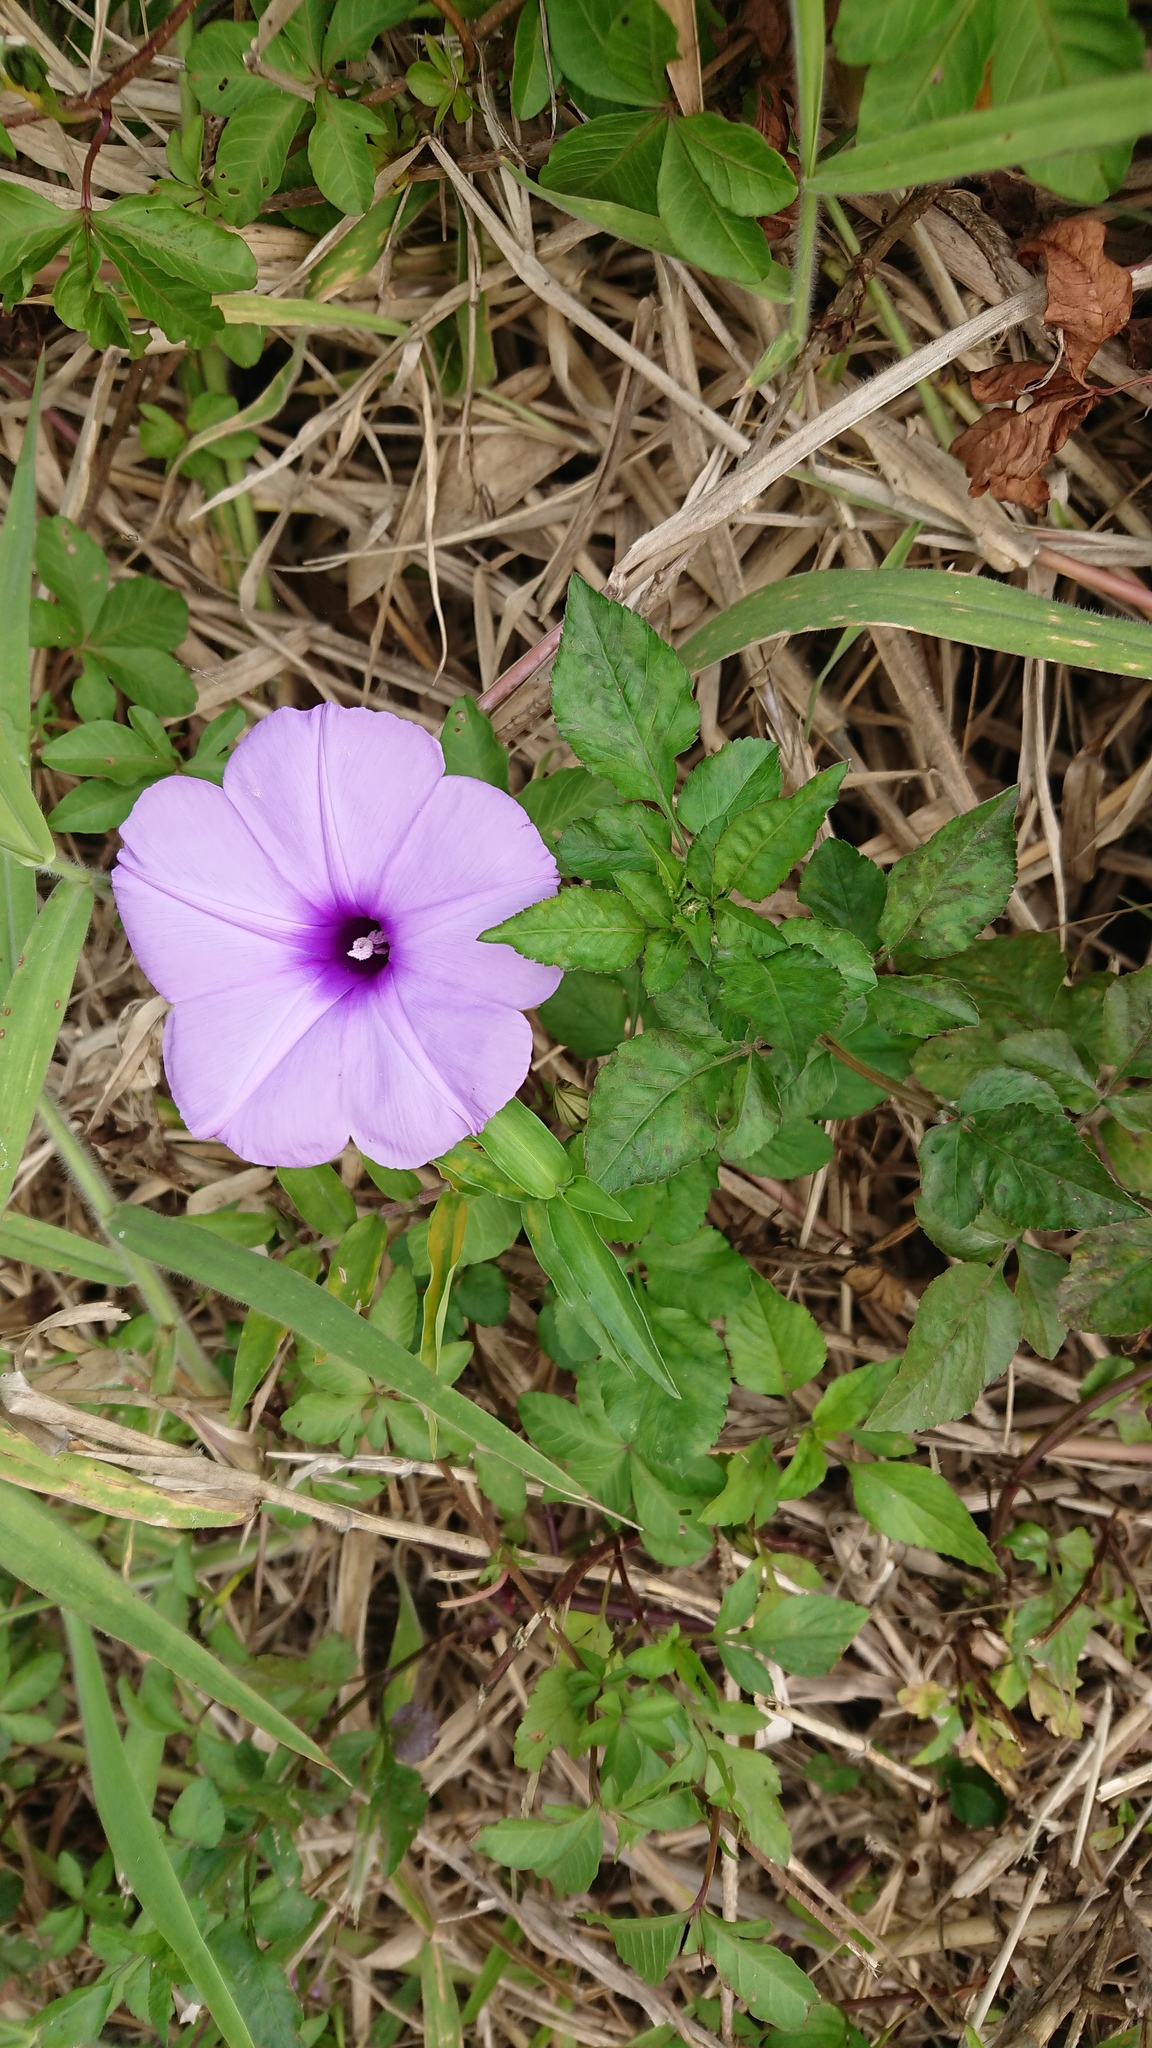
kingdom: Plantae
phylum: Tracheophyta
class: Magnoliopsida
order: Solanales
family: Convolvulaceae
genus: Ipomoea
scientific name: Ipomoea cairica
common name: Mile a minute vine
